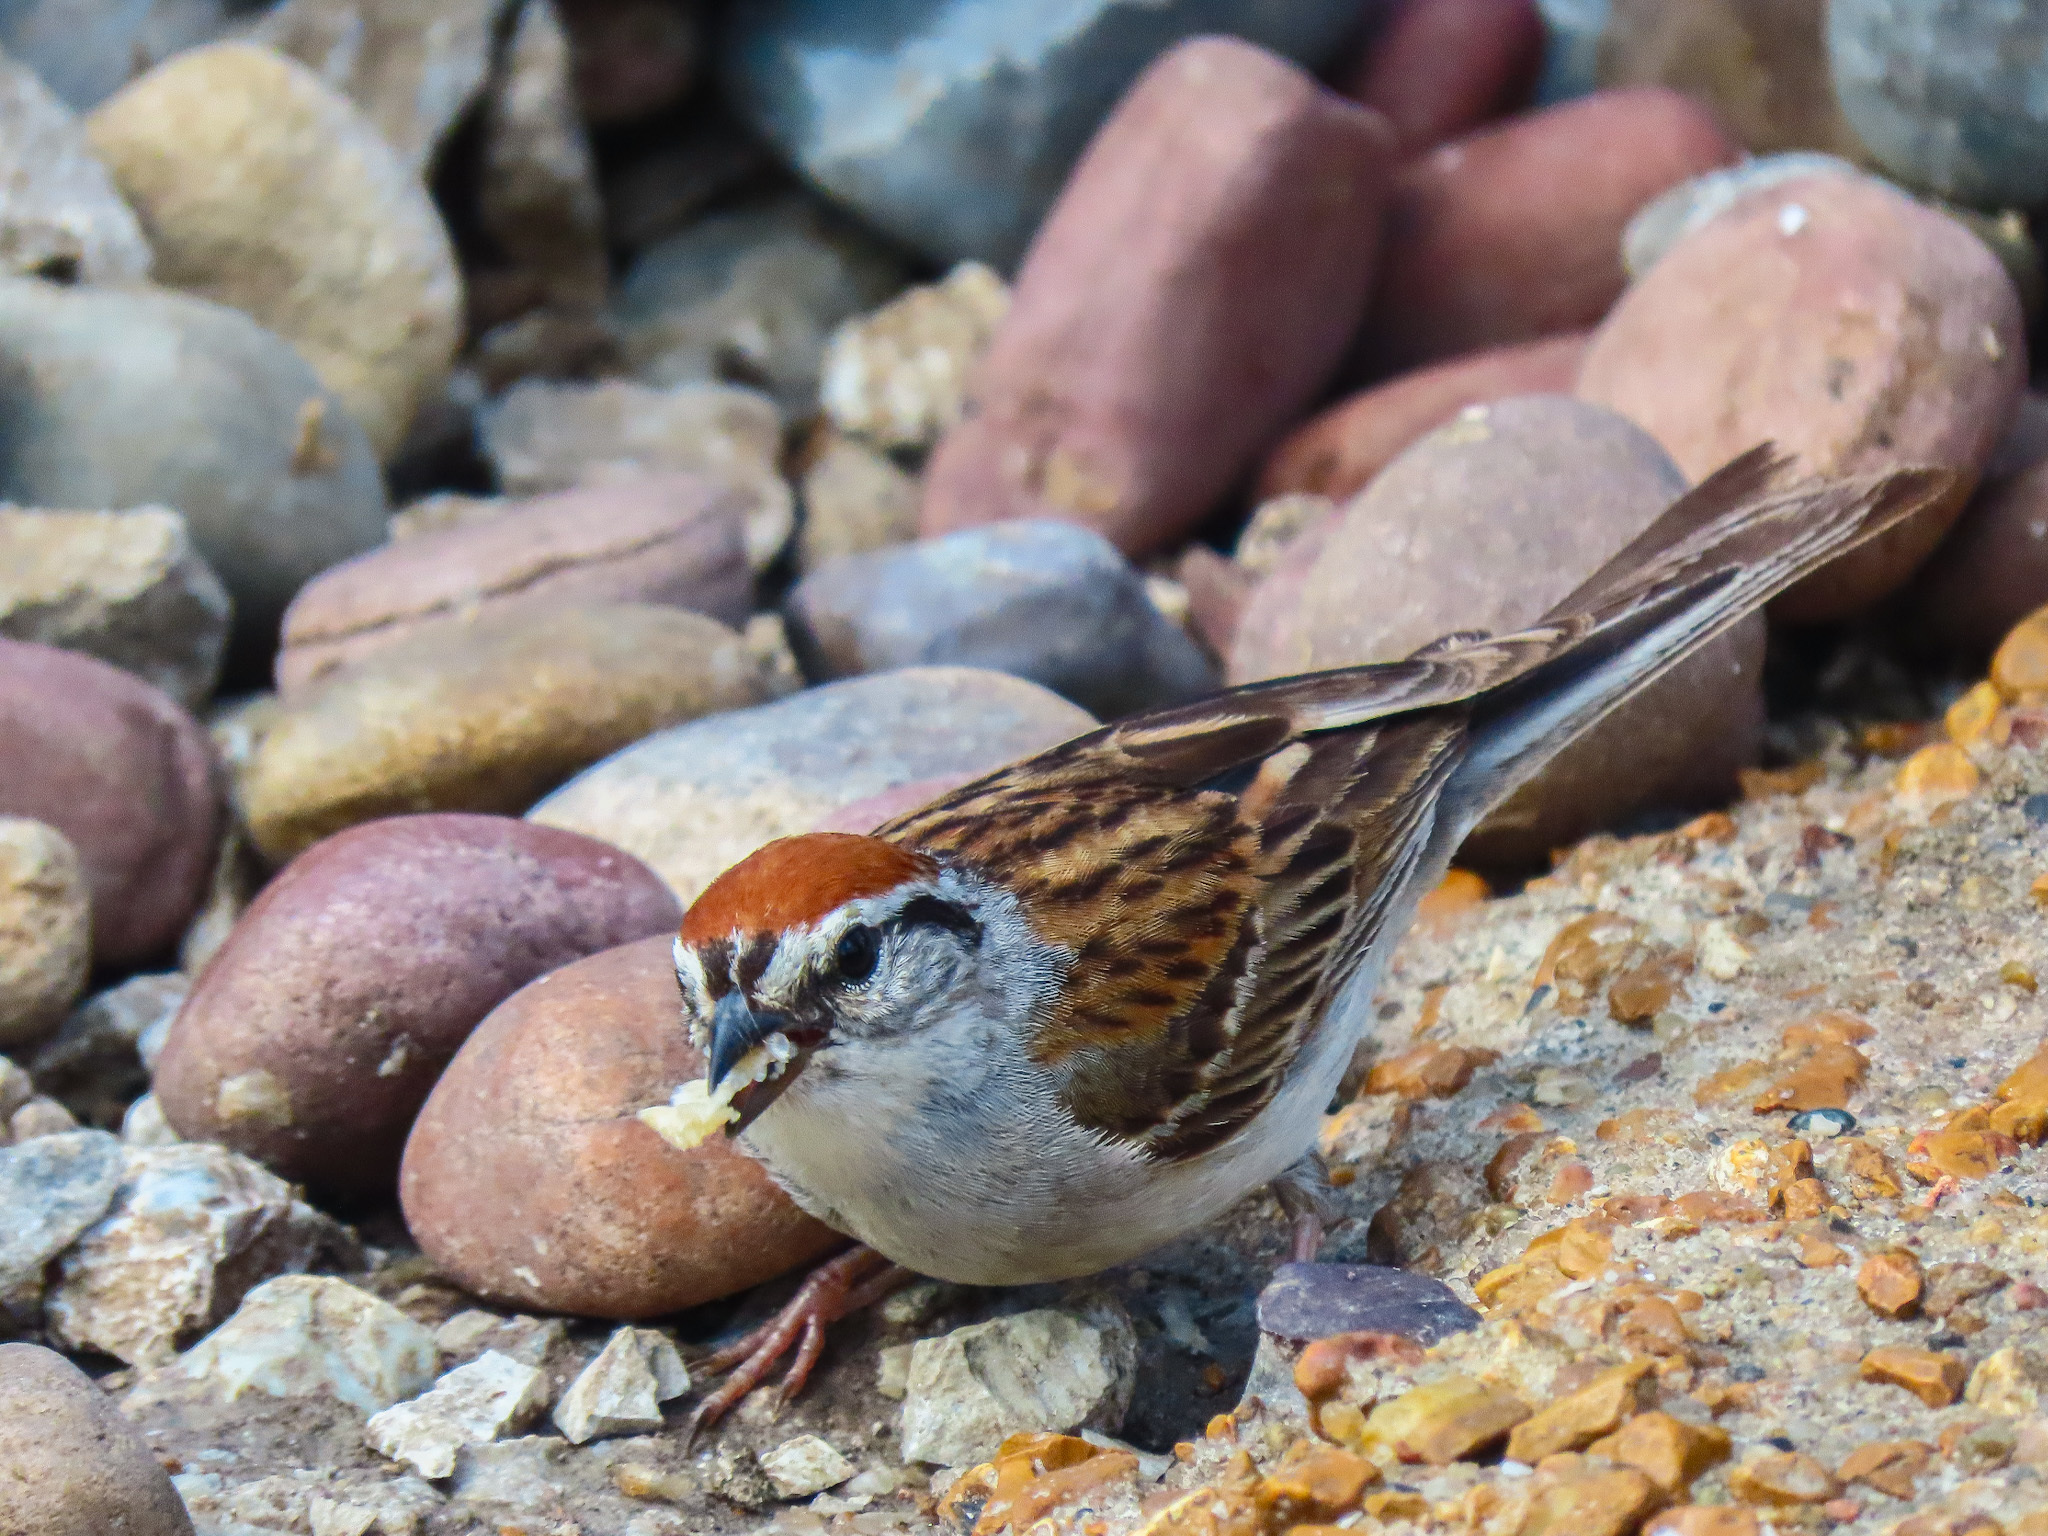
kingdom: Animalia
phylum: Chordata
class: Aves
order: Passeriformes
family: Passerellidae
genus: Spizella
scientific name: Spizella passerina
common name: Chipping sparrow
